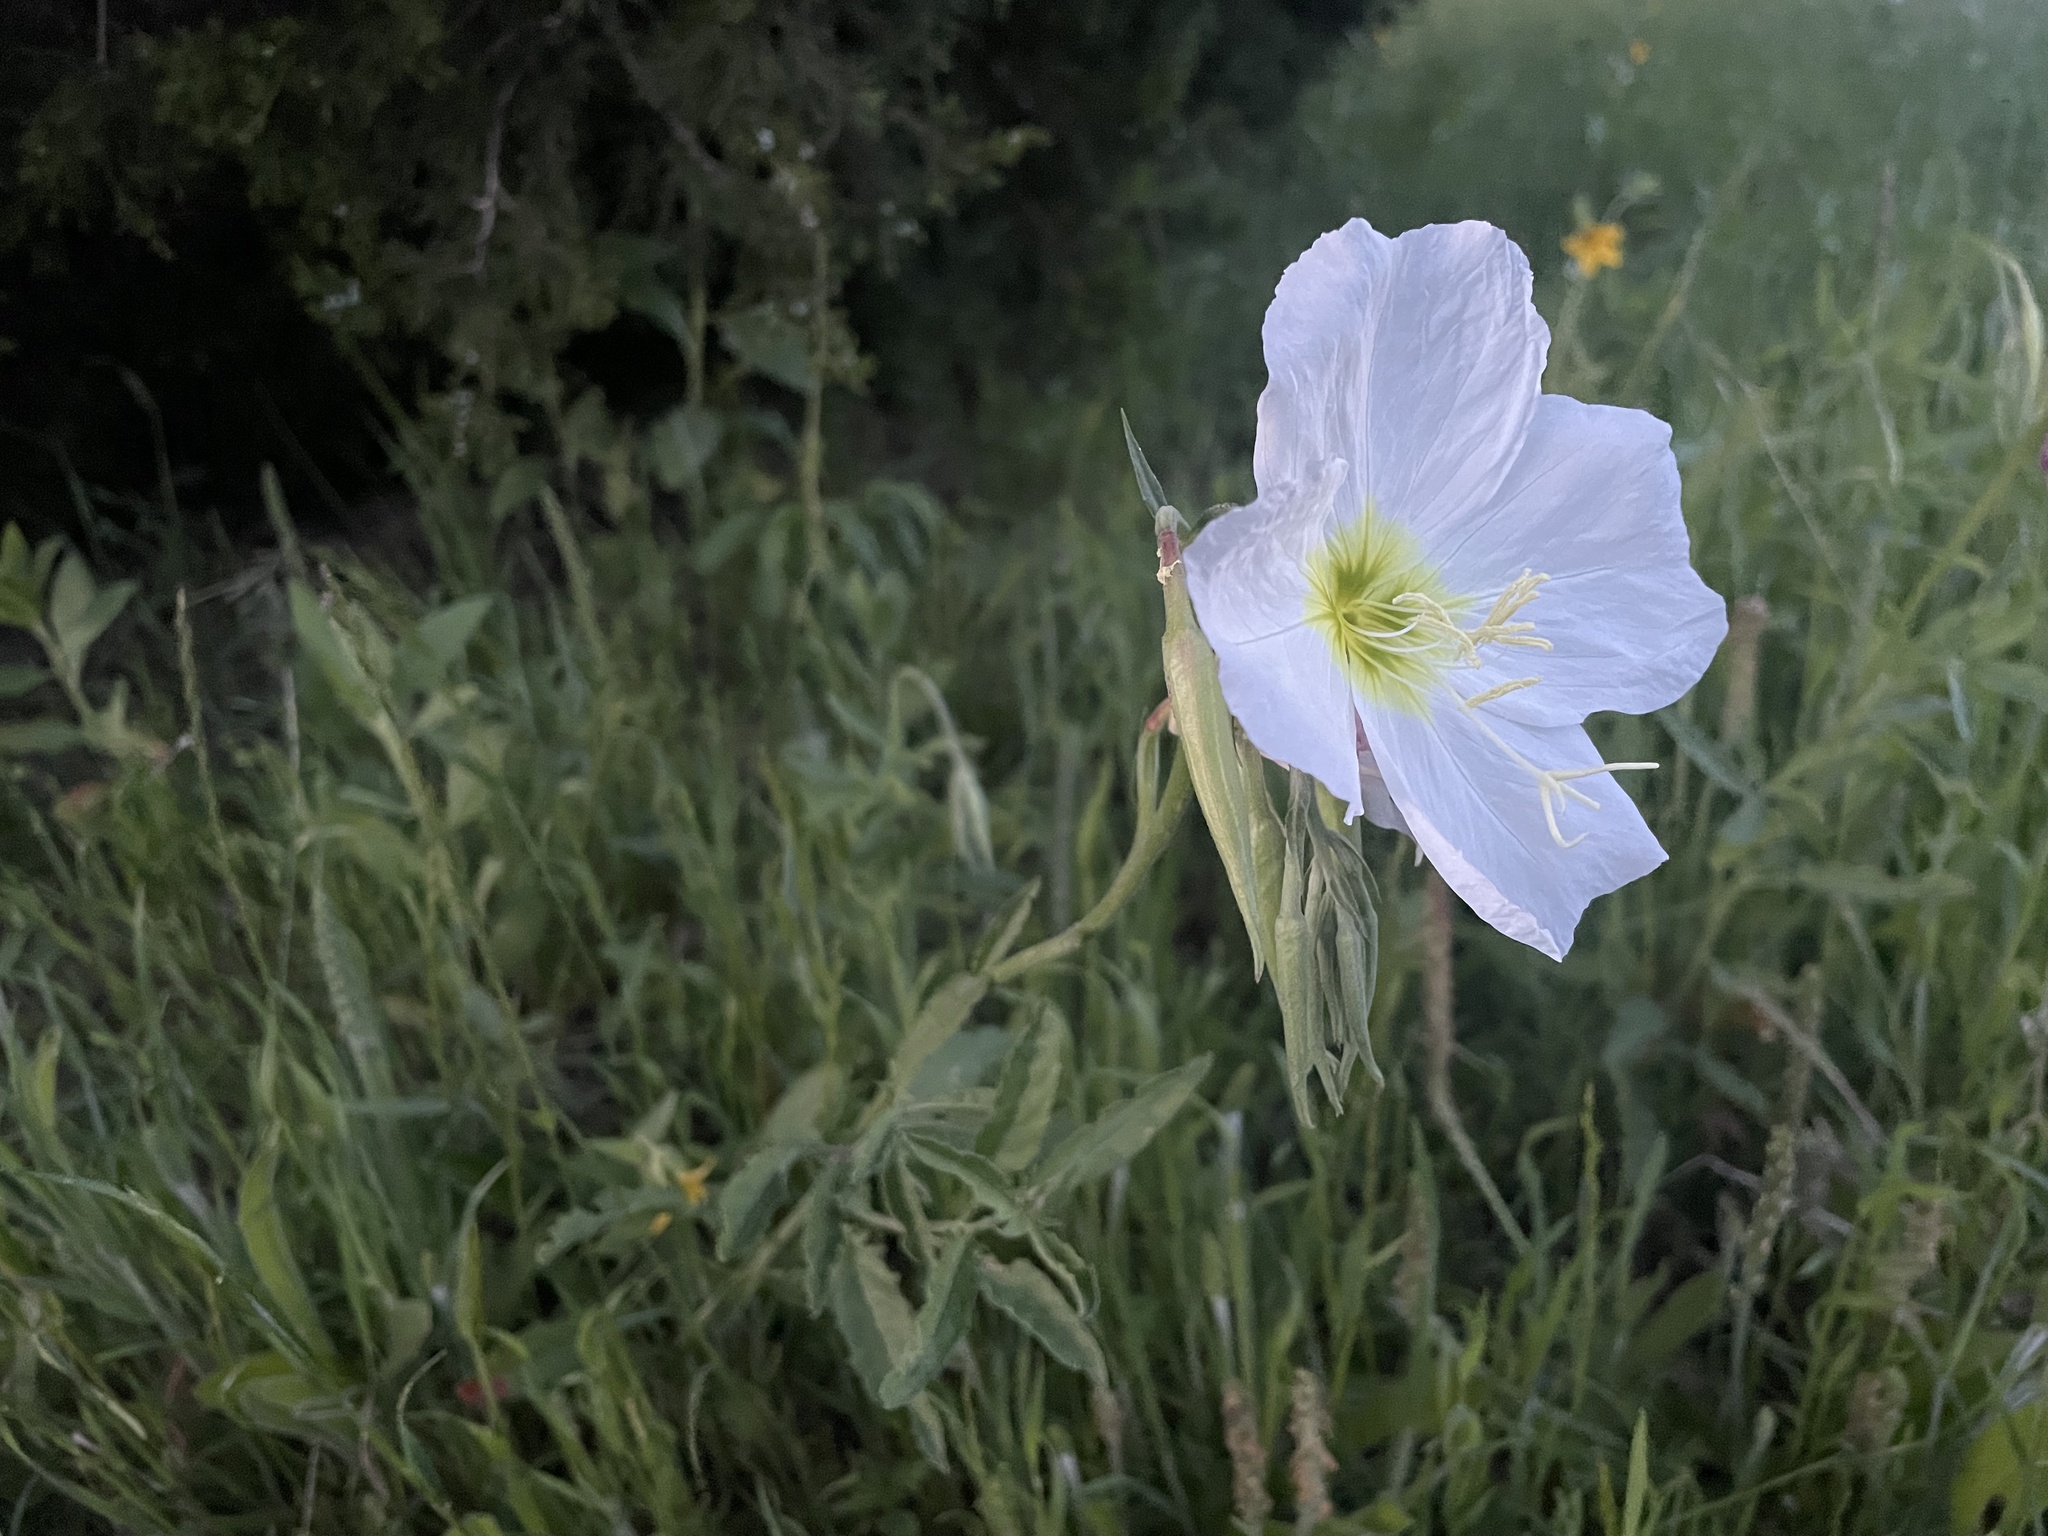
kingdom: Plantae
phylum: Tracheophyta
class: Magnoliopsida
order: Myrtales
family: Onagraceae
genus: Oenothera
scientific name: Oenothera speciosa
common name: White evening-primrose
